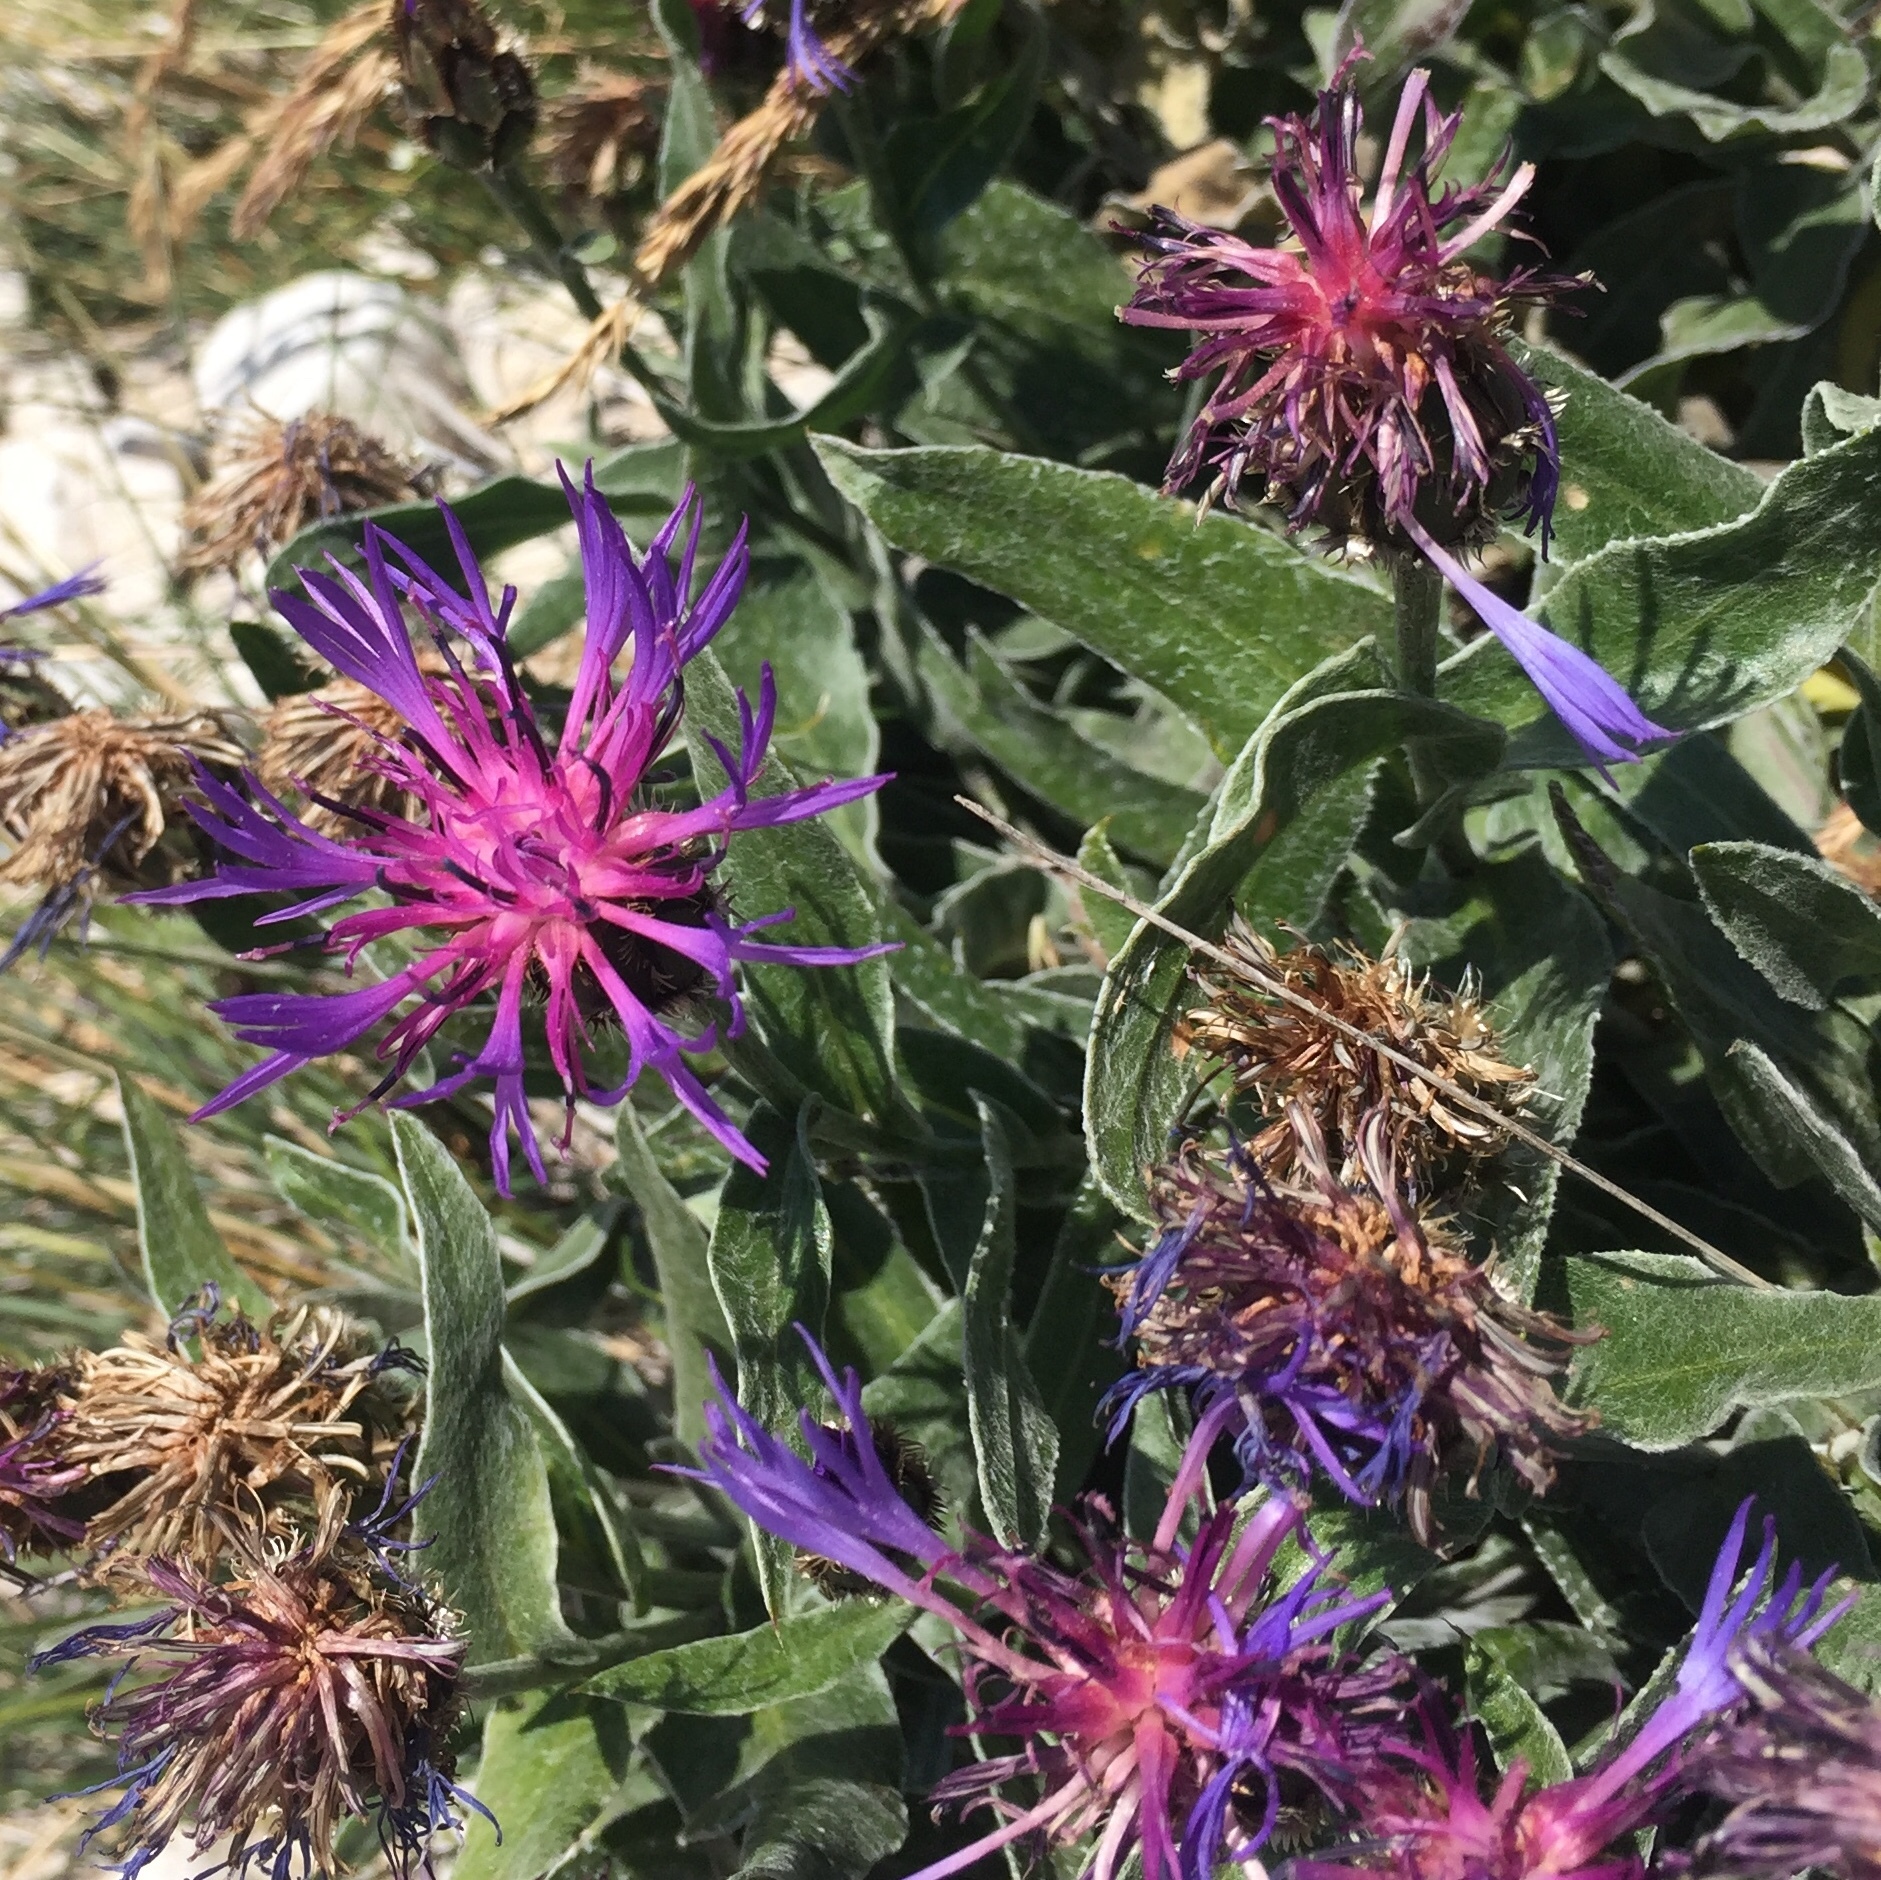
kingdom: Plantae
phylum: Tracheophyta
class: Magnoliopsida
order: Asterales
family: Asteraceae
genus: Centaurea
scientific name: Centaurea triumfettii
